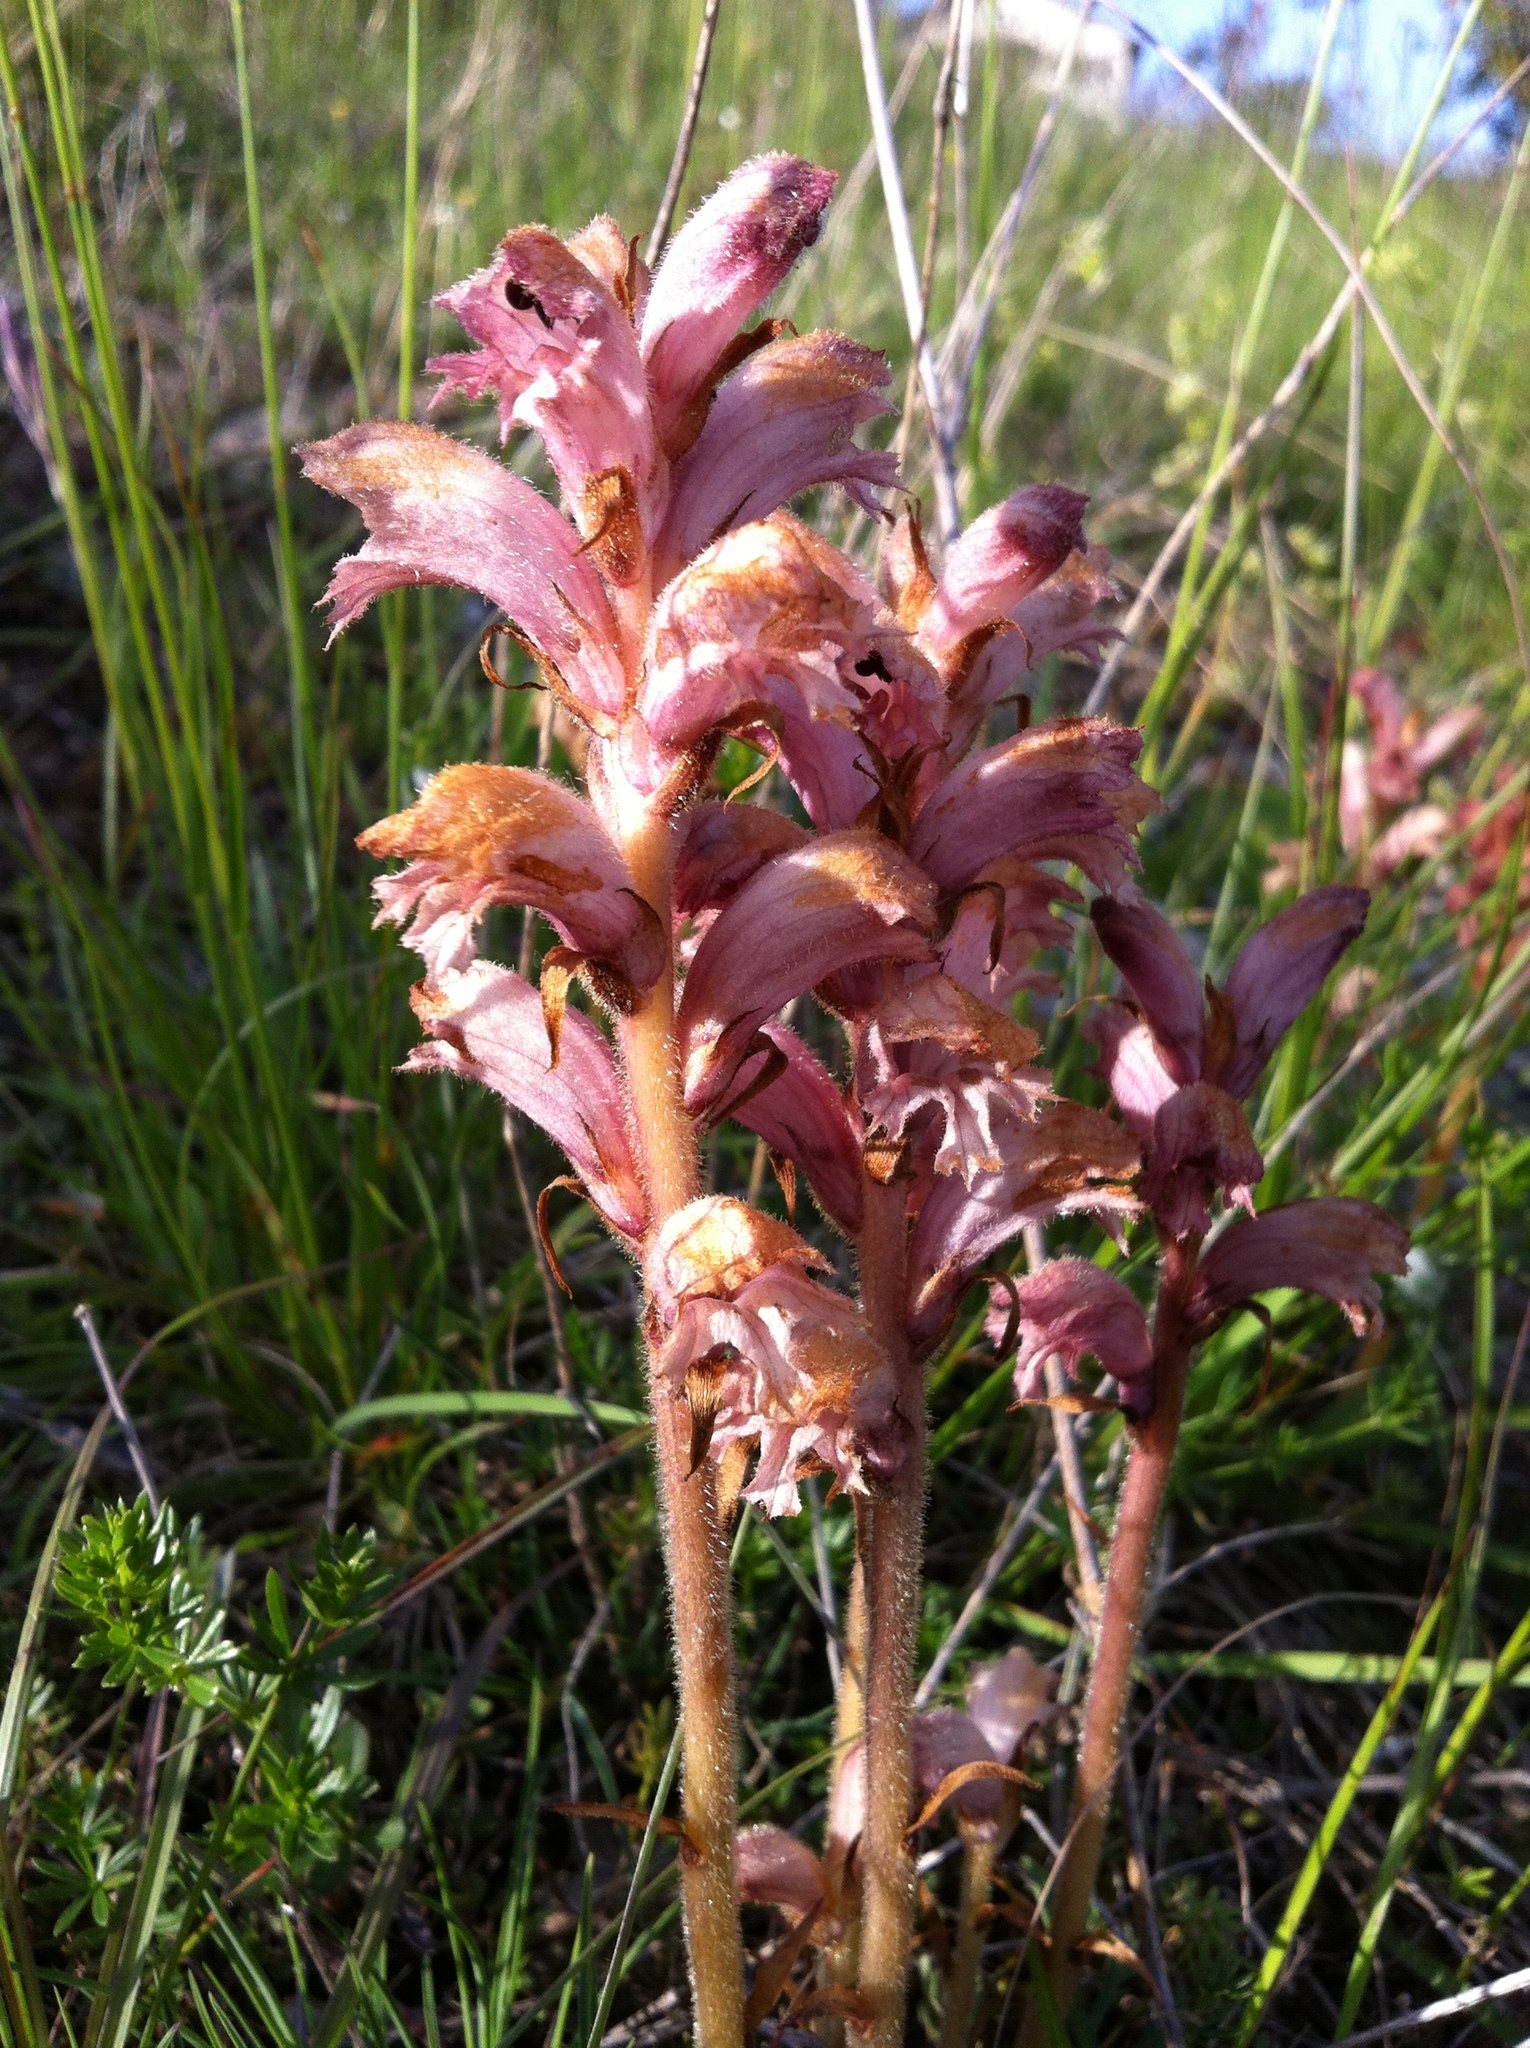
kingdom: Plantae
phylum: Tracheophyta
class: Magnoliopsida
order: Lamiales
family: Orobanchaceae
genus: Orobanche
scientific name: Orobanche caryophyllacea
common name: Bedstraw broomrape
